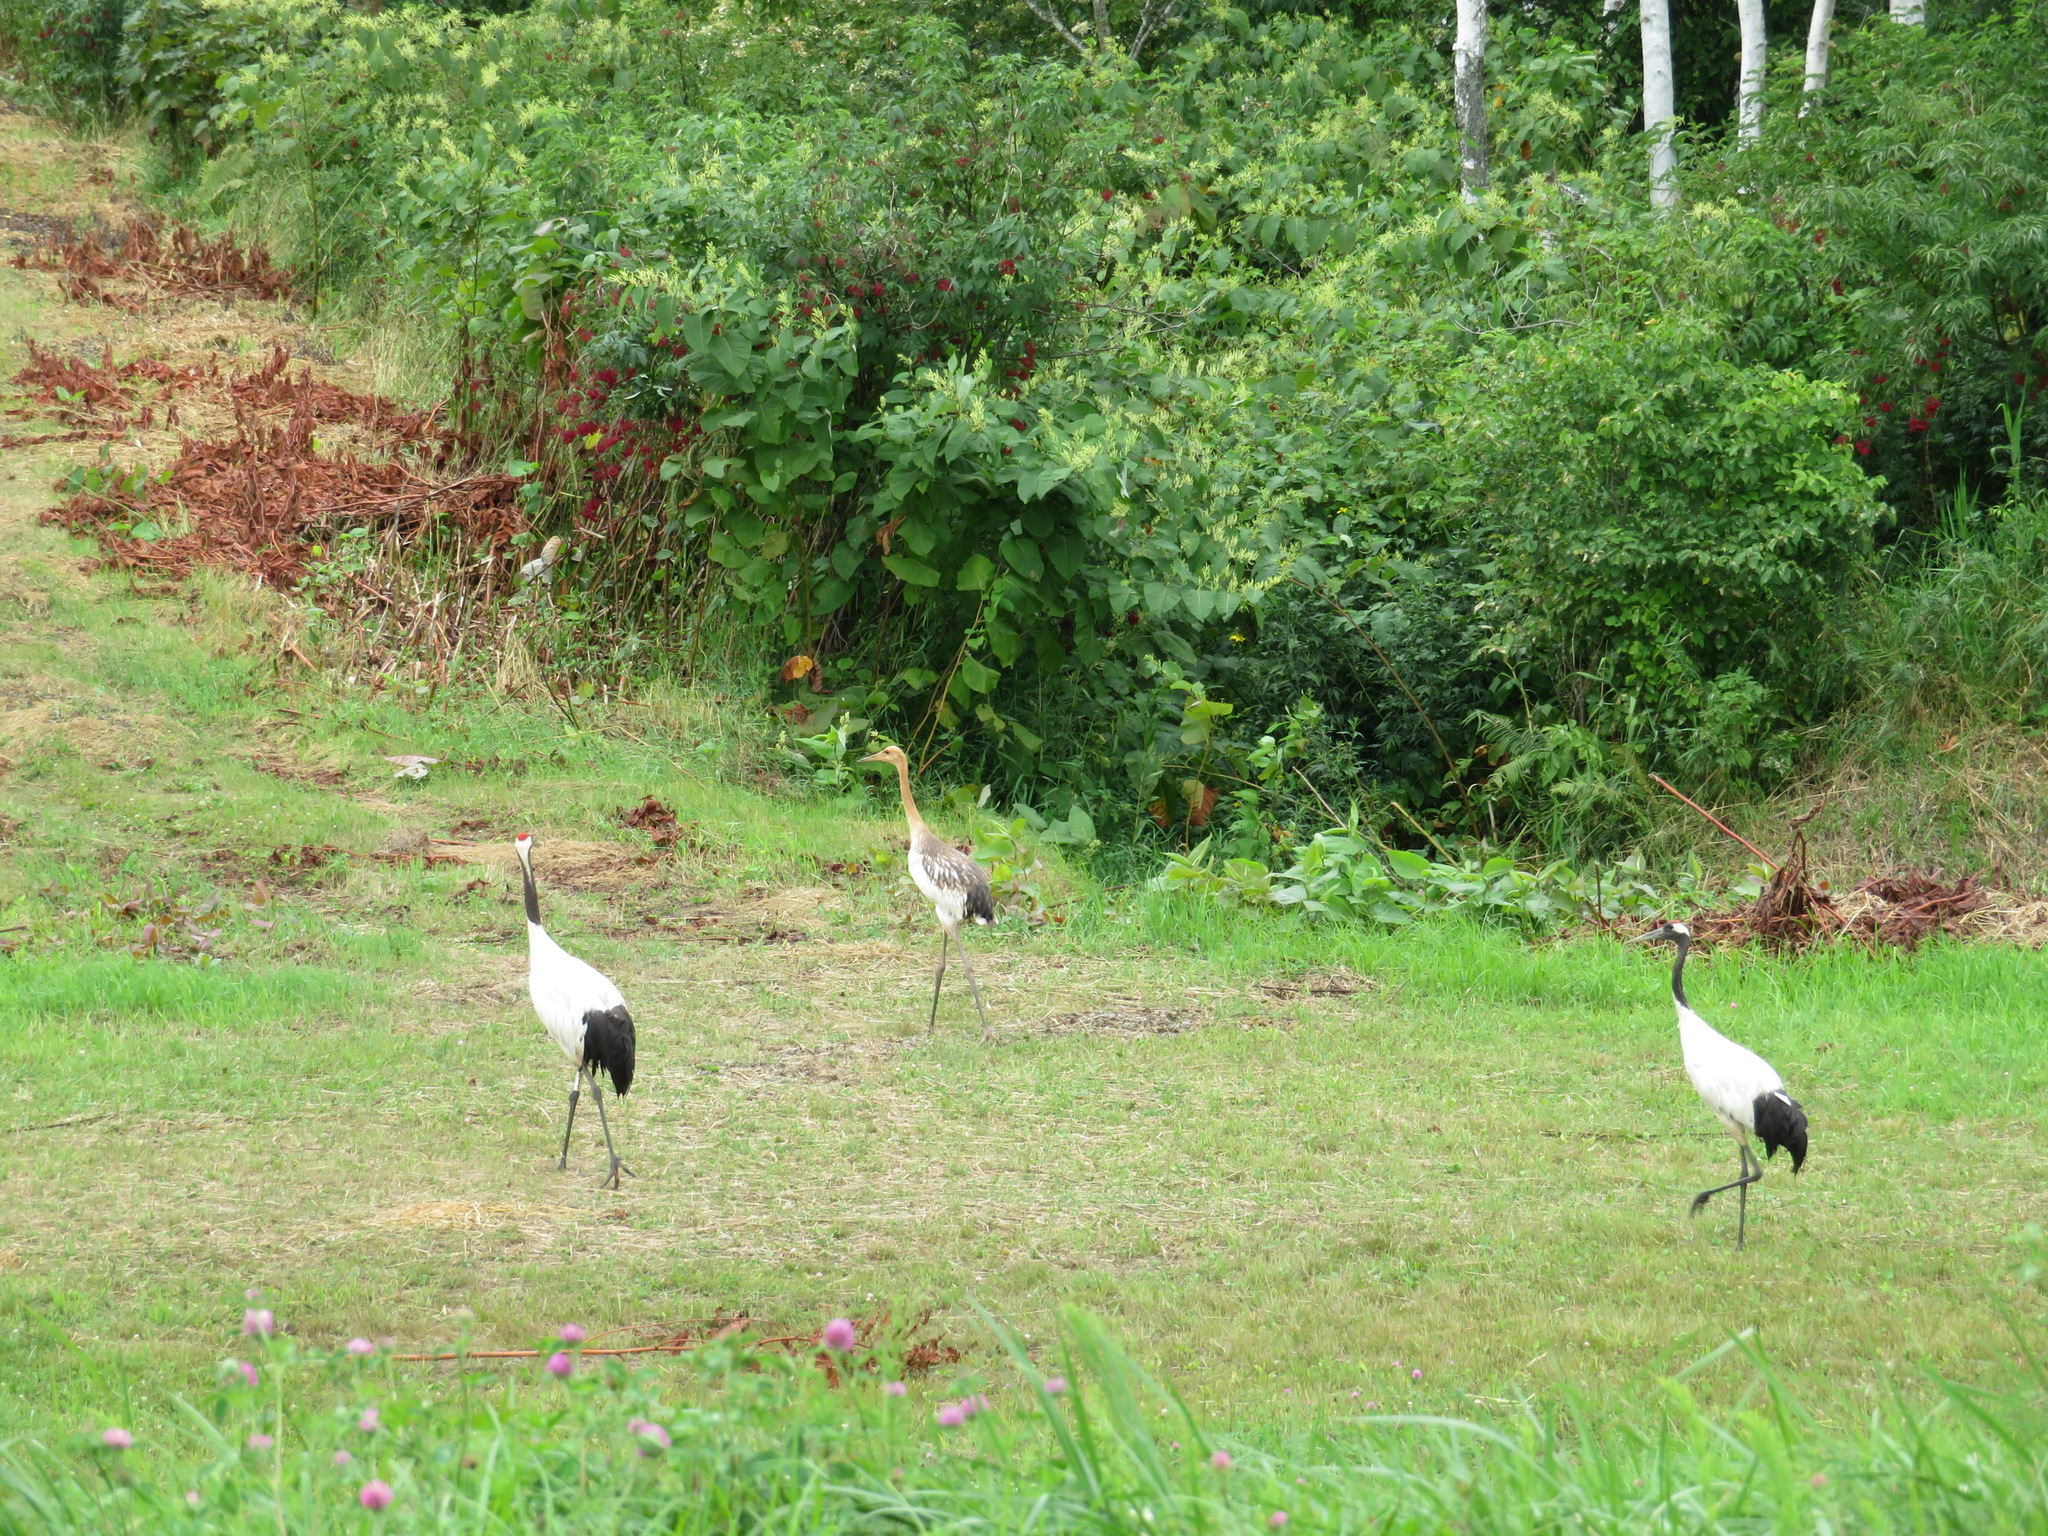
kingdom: Animalia
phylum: Chordata
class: Aves
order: Gruiformes
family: Gruidae
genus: Grus
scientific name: Grus japonensis
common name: Red-crowned crane
